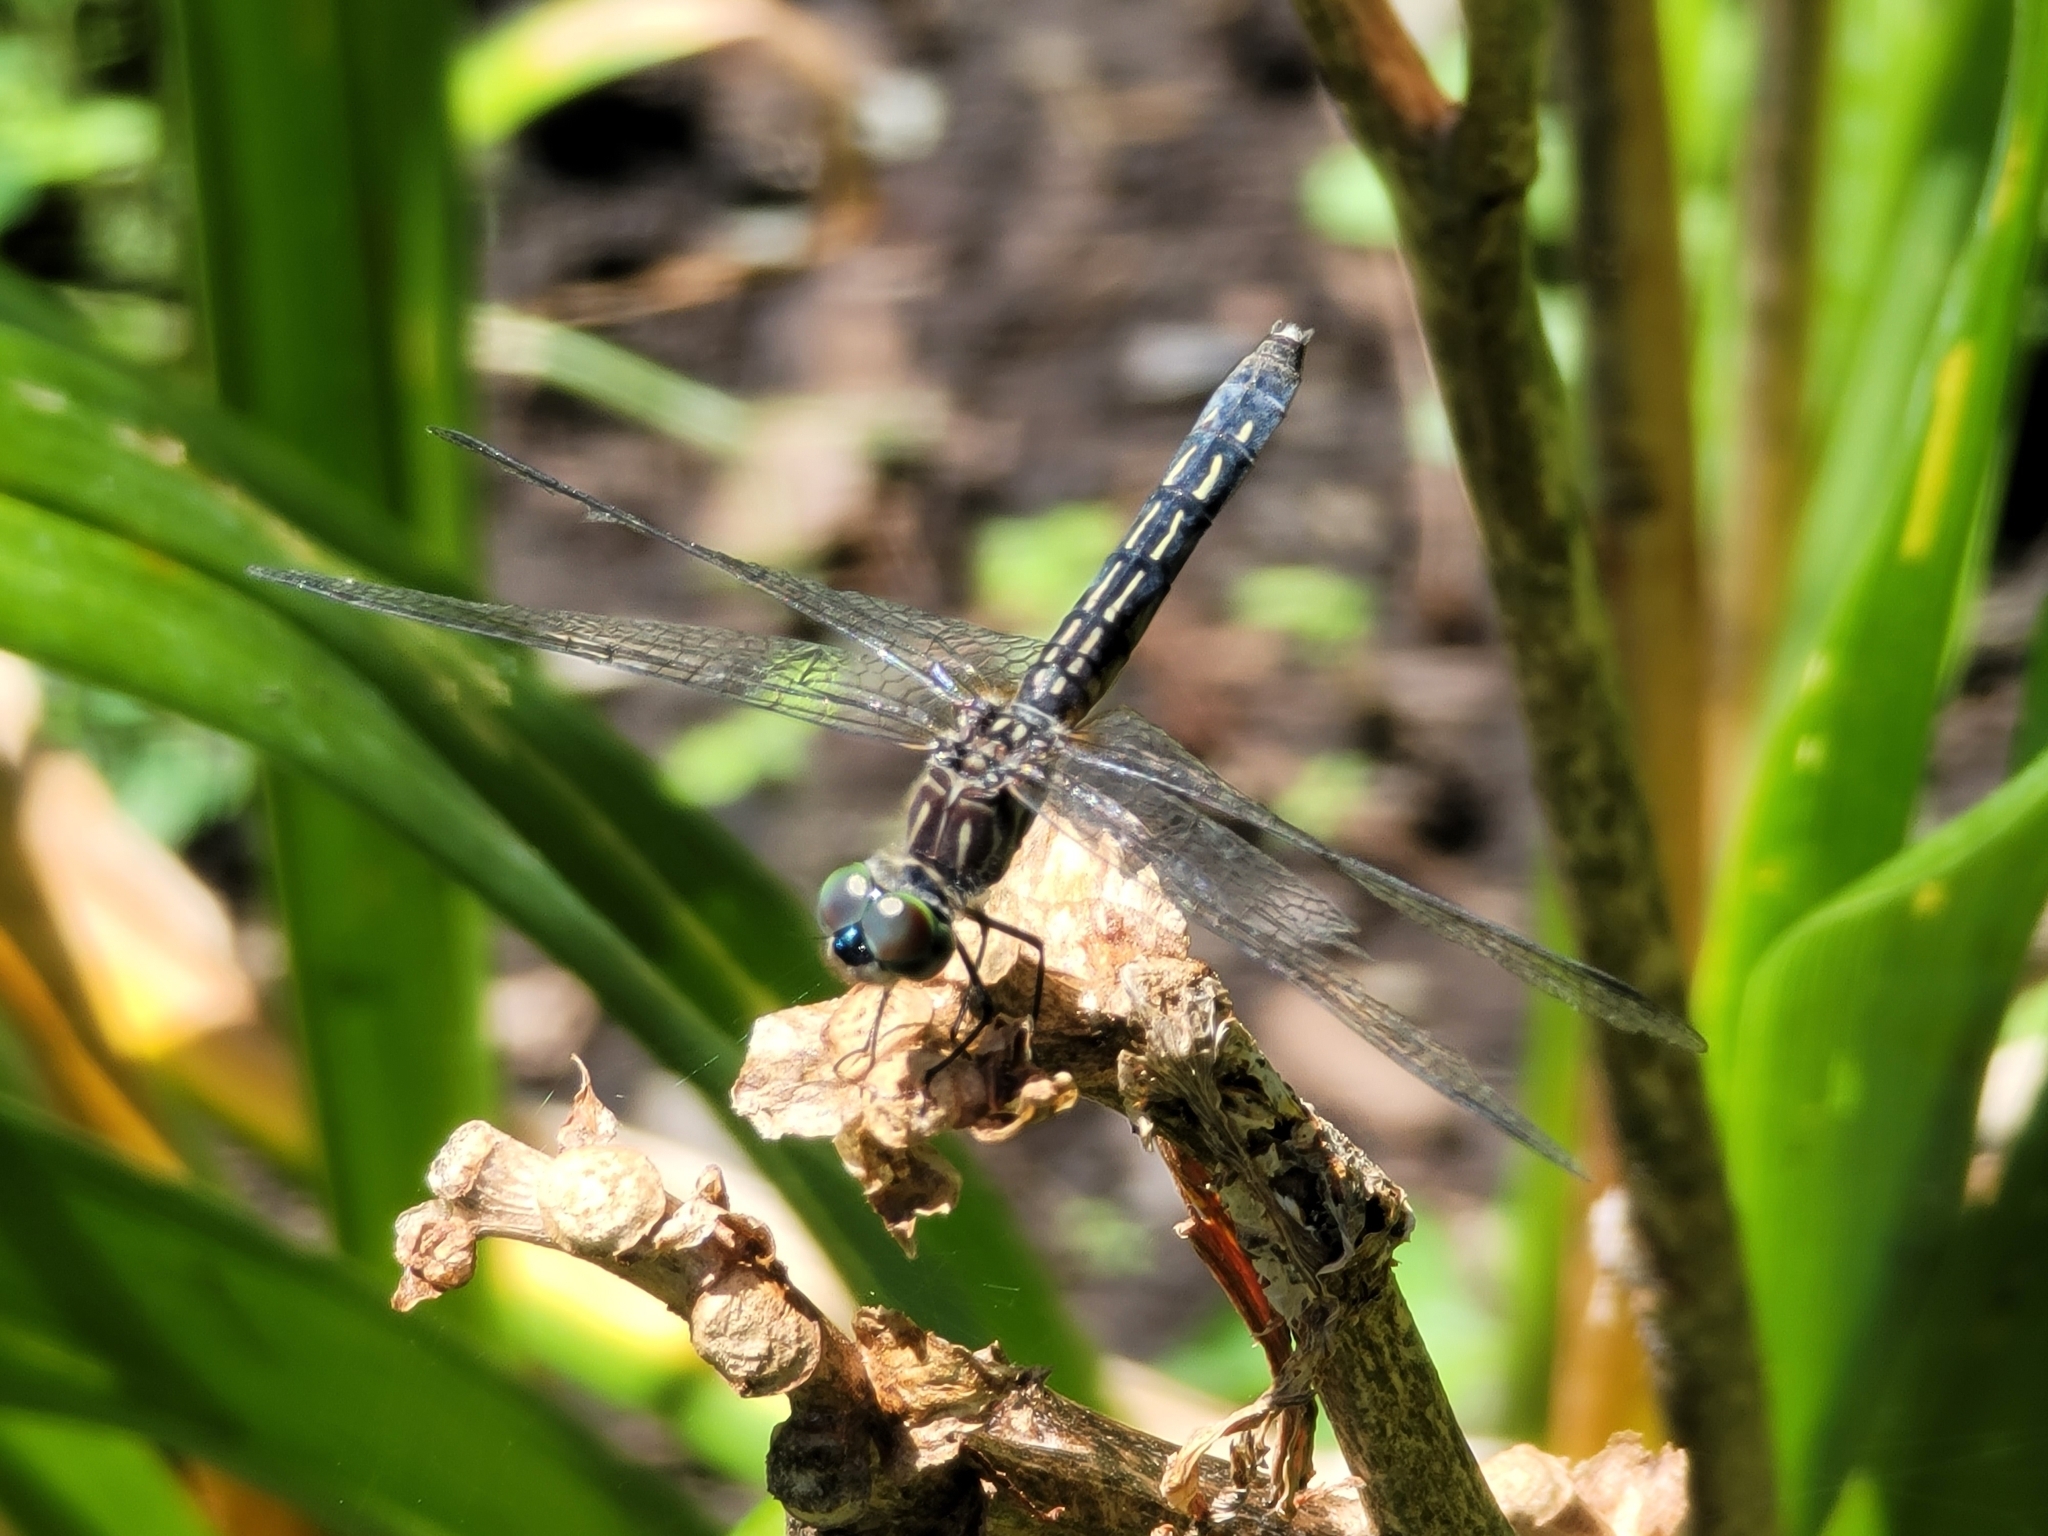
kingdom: Animalia
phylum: Arthropoda
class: Insecta
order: Odonata
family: Libellulidae
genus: Pachydiplax
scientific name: Pachydiplax longipennis
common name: Blue dasher
